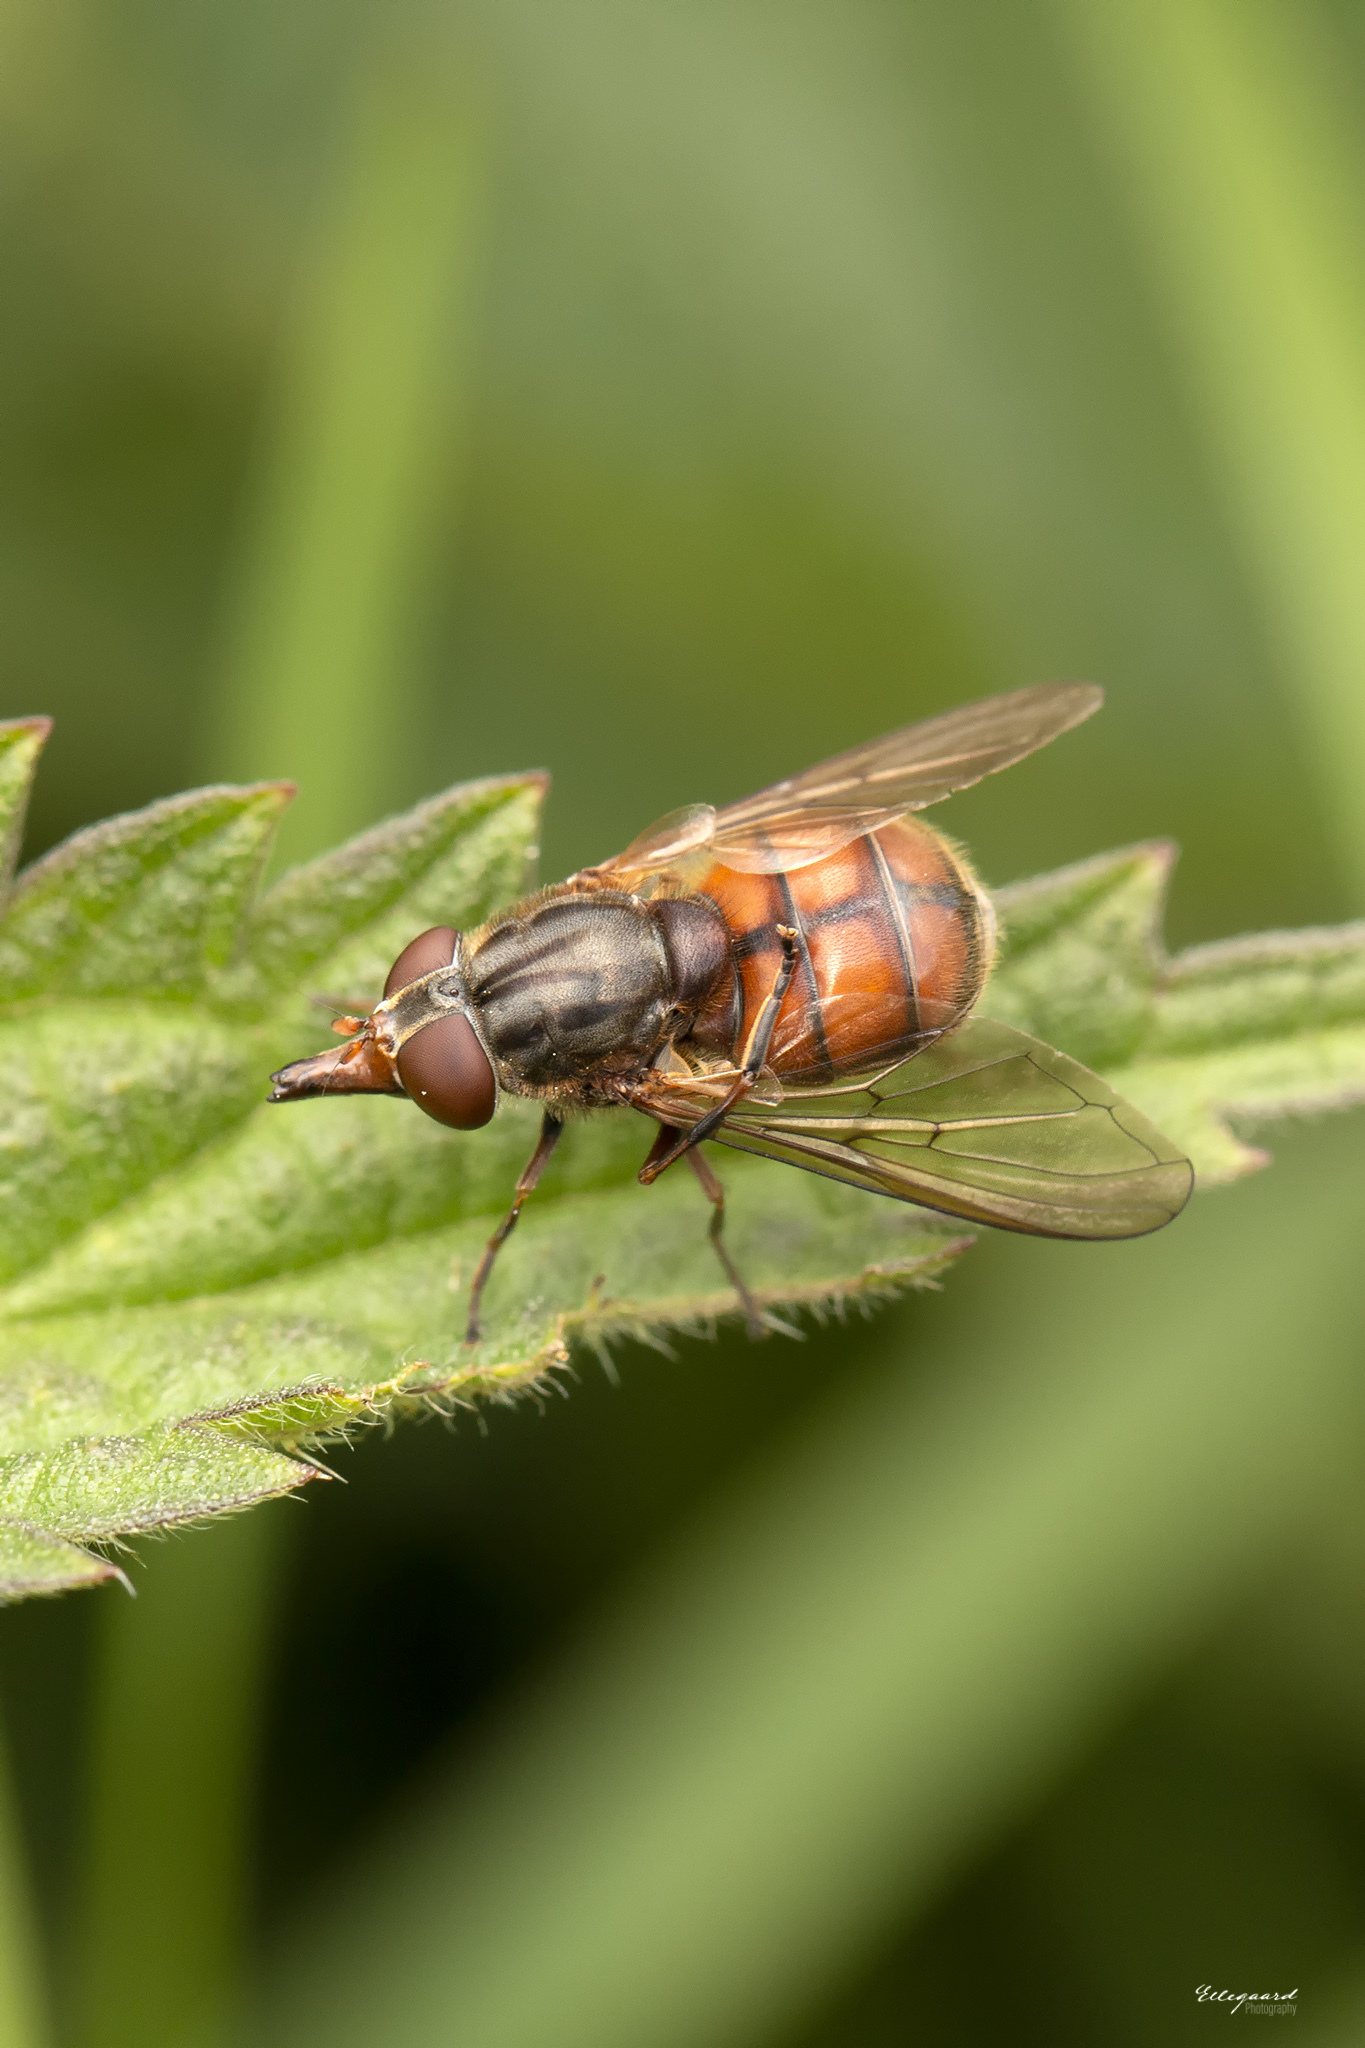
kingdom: Animalia
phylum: Arthropoda
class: Insecta
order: Diptera
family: Syrphidae
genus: Rhingia
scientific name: Rhingia campestris
